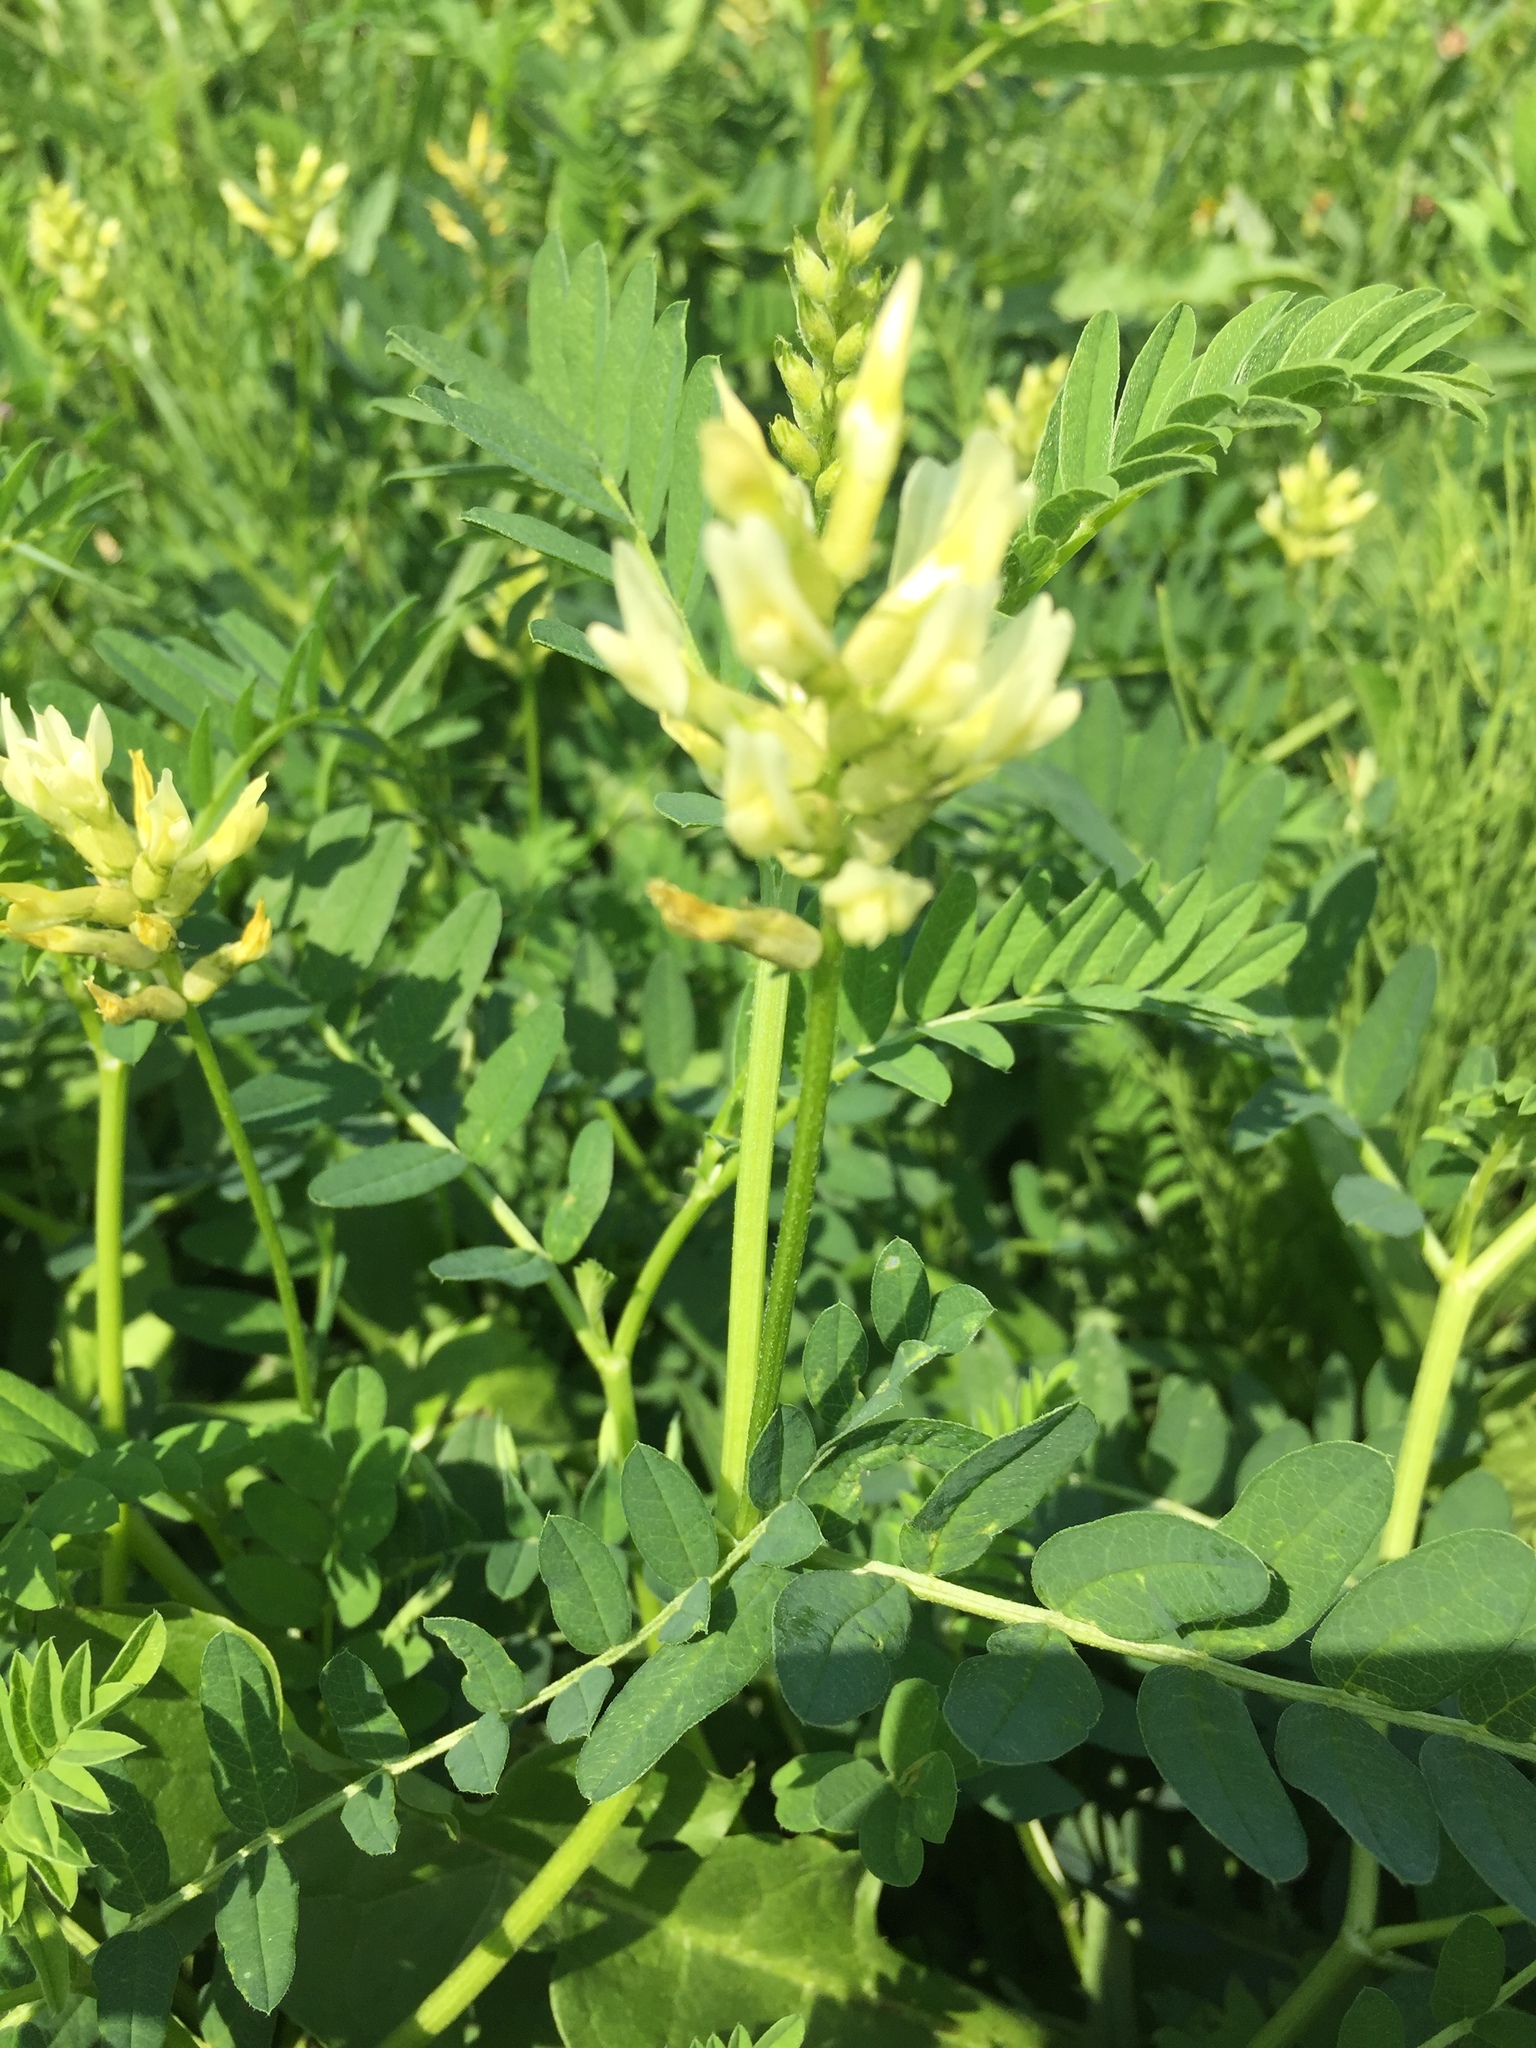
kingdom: Plantae
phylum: Tracheophyta
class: Magnoliopsida
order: Fabales
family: Fabaceae
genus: Astragalus
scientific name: Astragalus cicer
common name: Chick-pea milk-vetch
